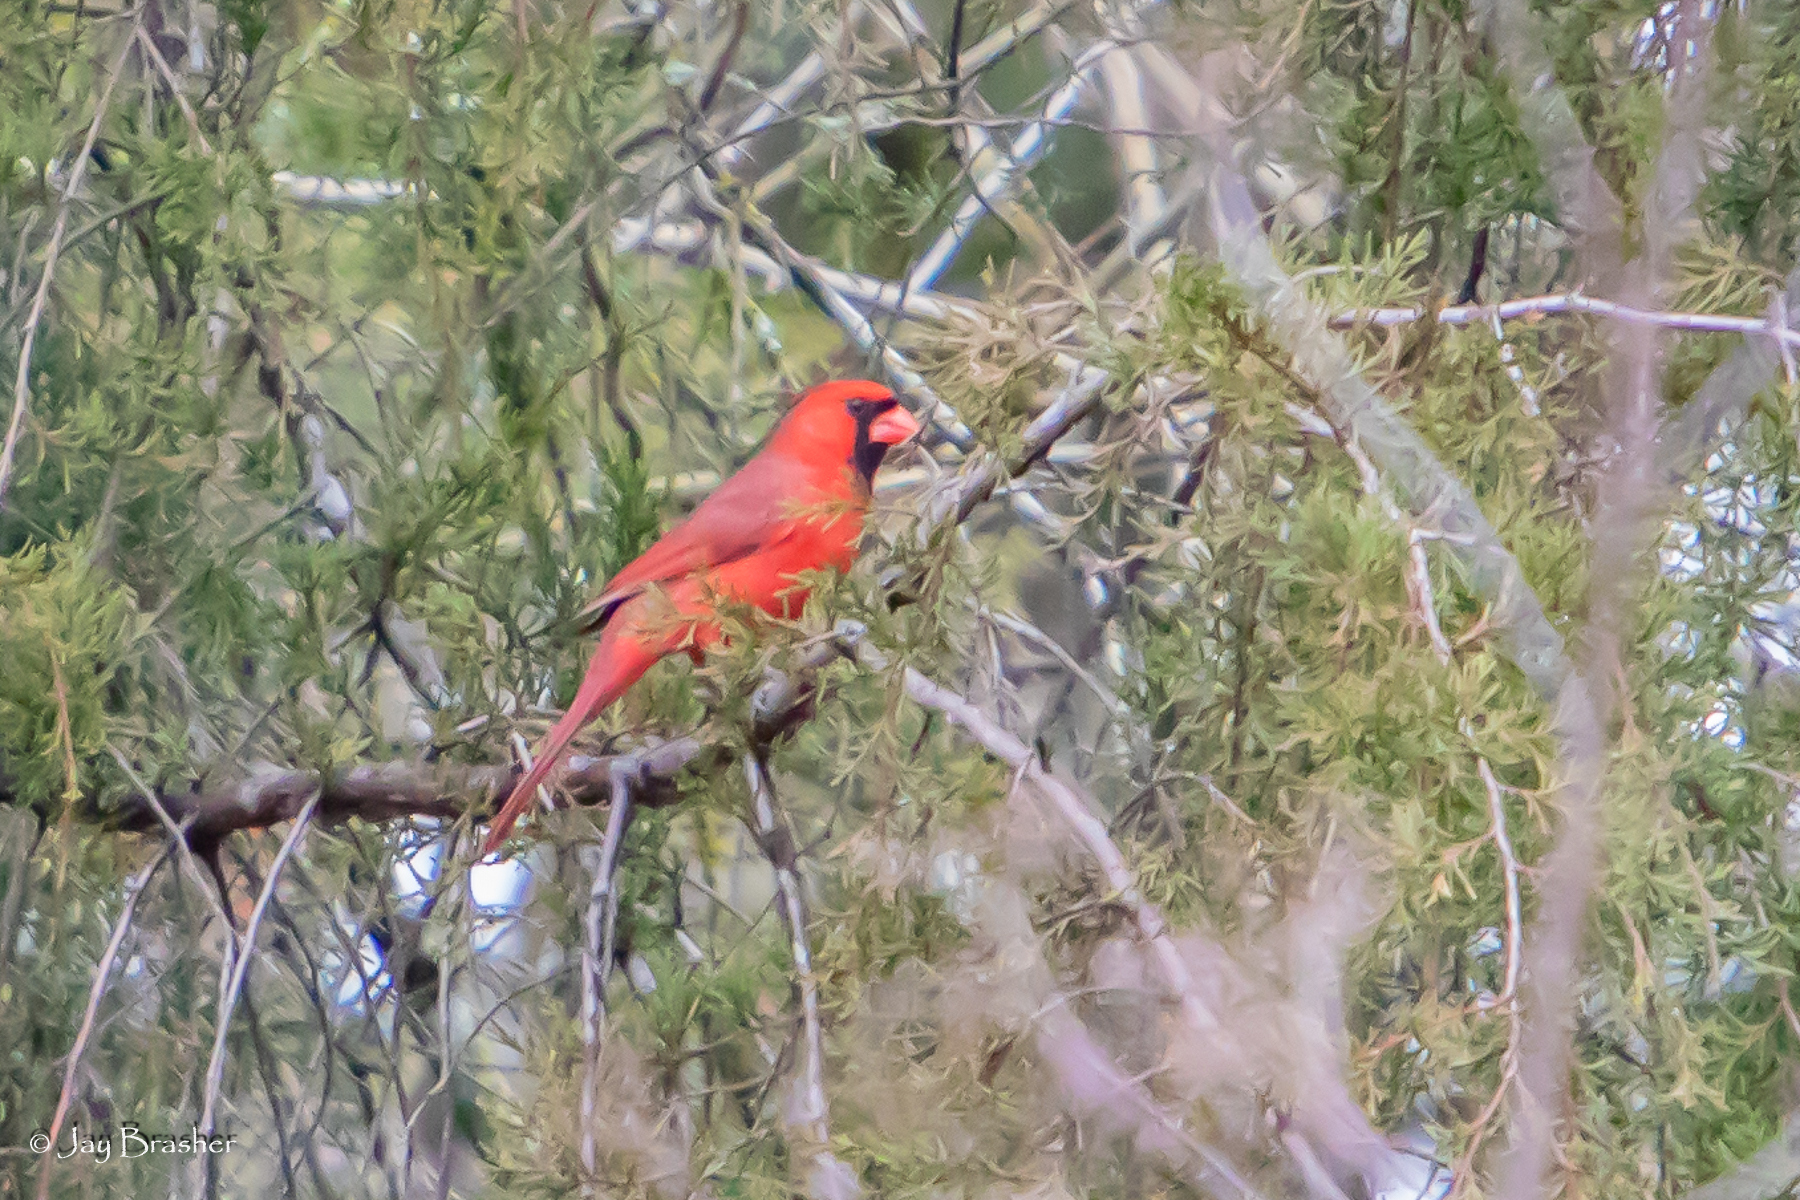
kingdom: Animalia
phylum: Chordata
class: Aves
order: Passeriformes
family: Cardinalidae
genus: Cardinalis
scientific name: Cardinalis cardinalis
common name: Northern cardinal
